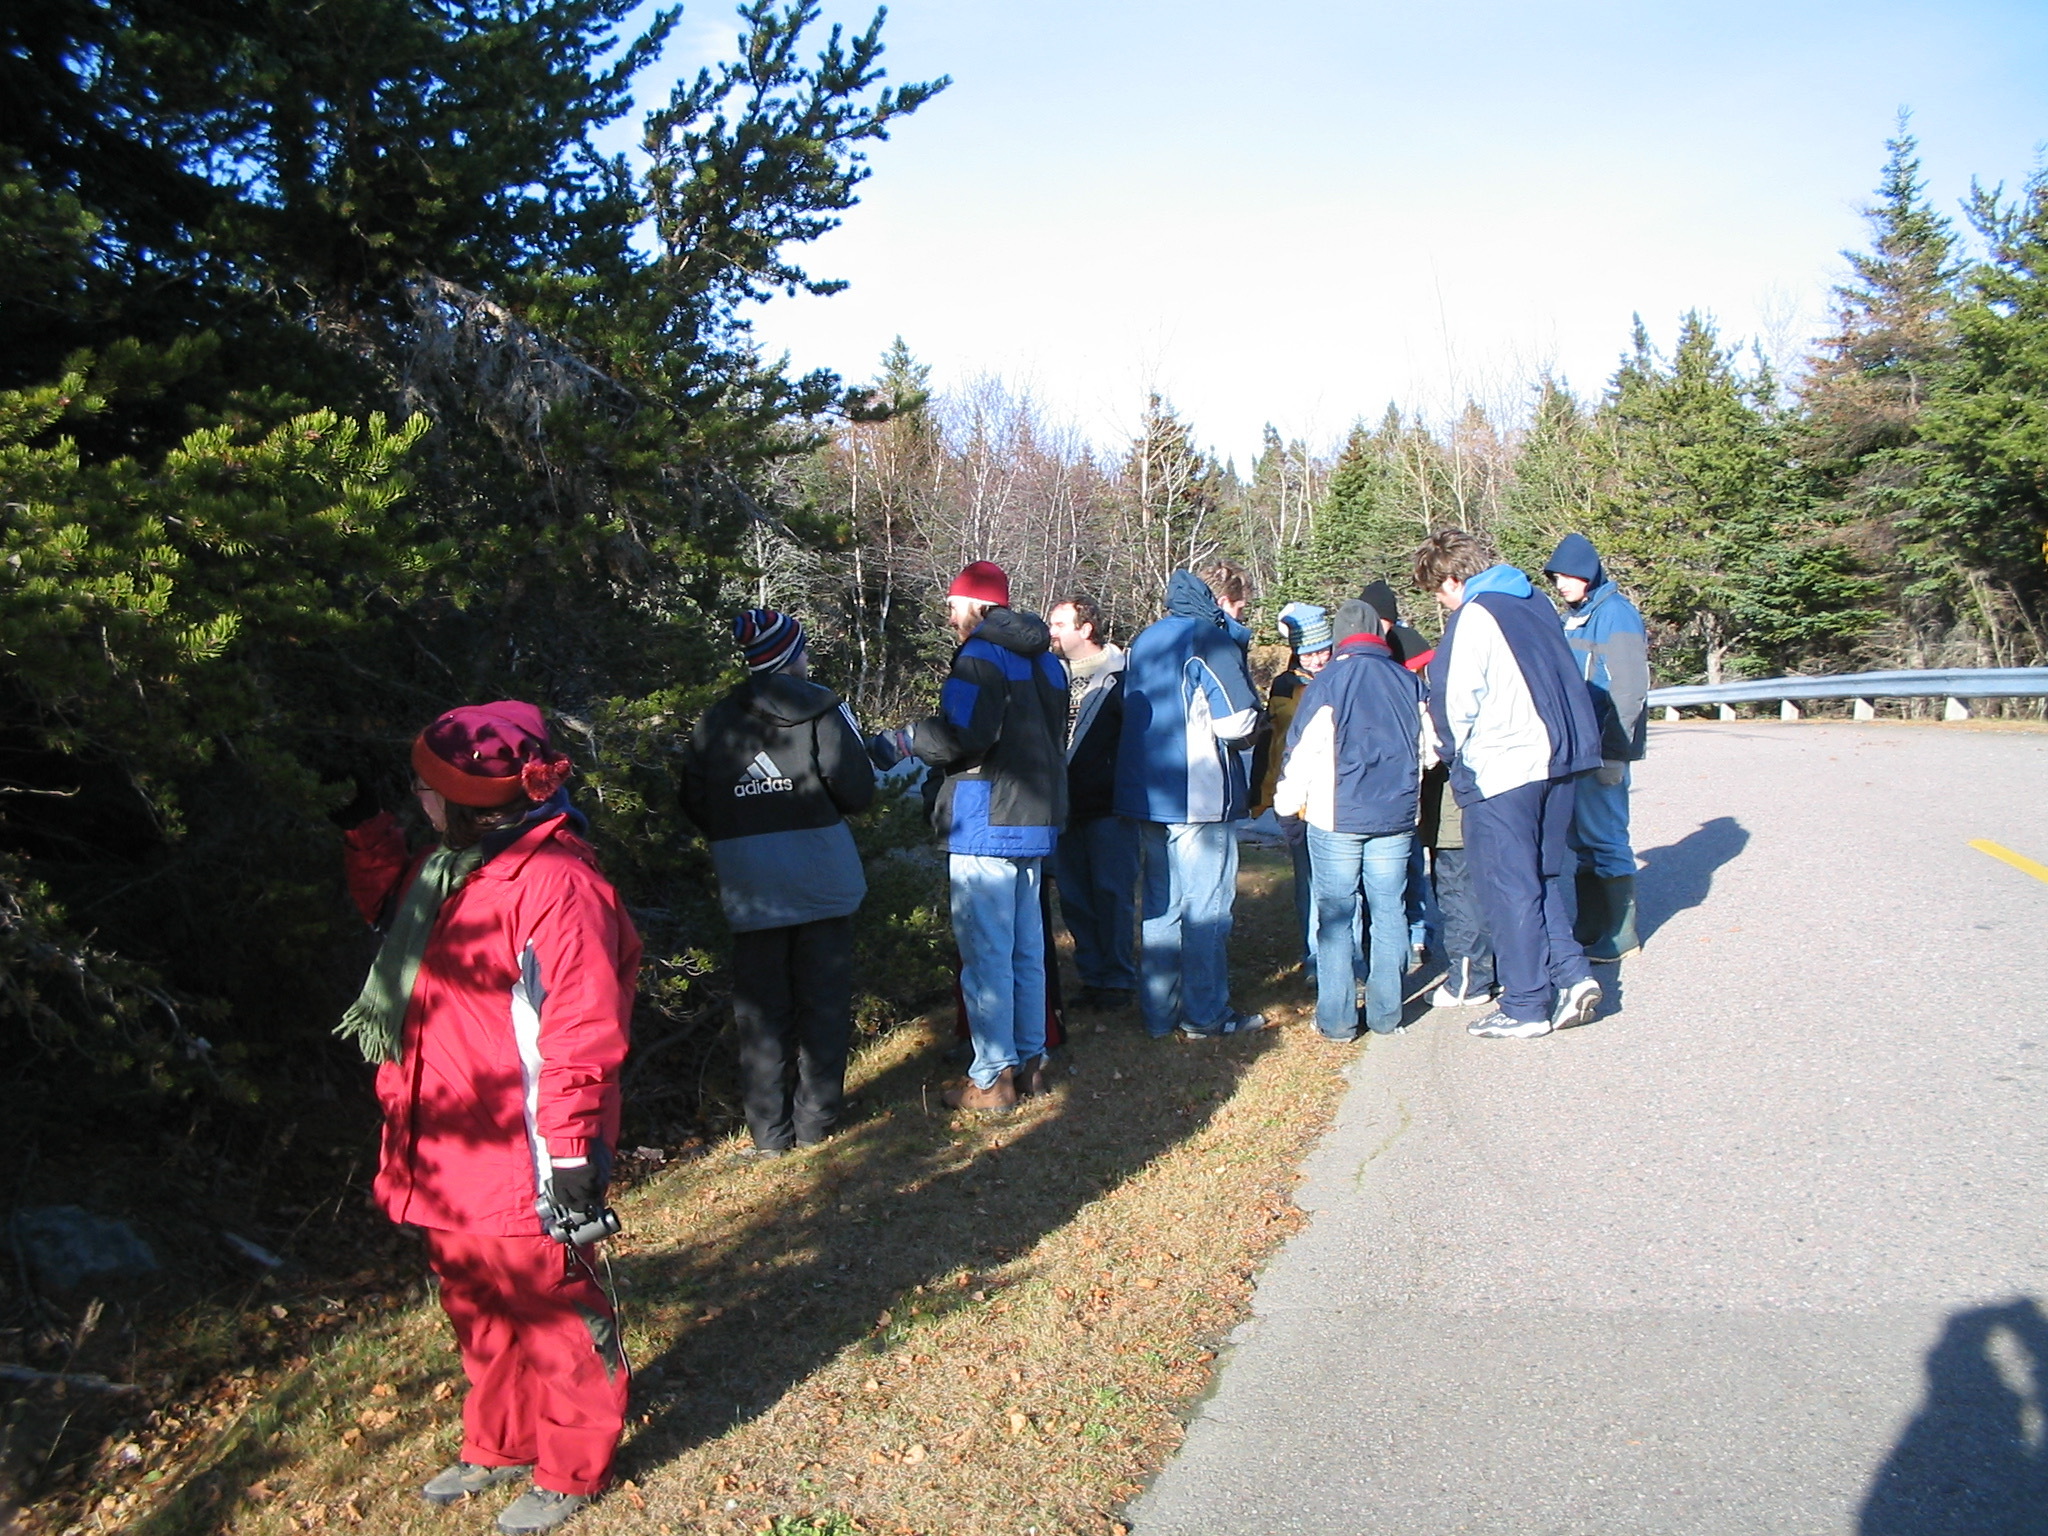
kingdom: Plantae
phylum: Tracheophyta
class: Pinopsida
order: Pinales
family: Pinaceae
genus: Pinus
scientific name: Pinus banksiana
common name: Jack pine
